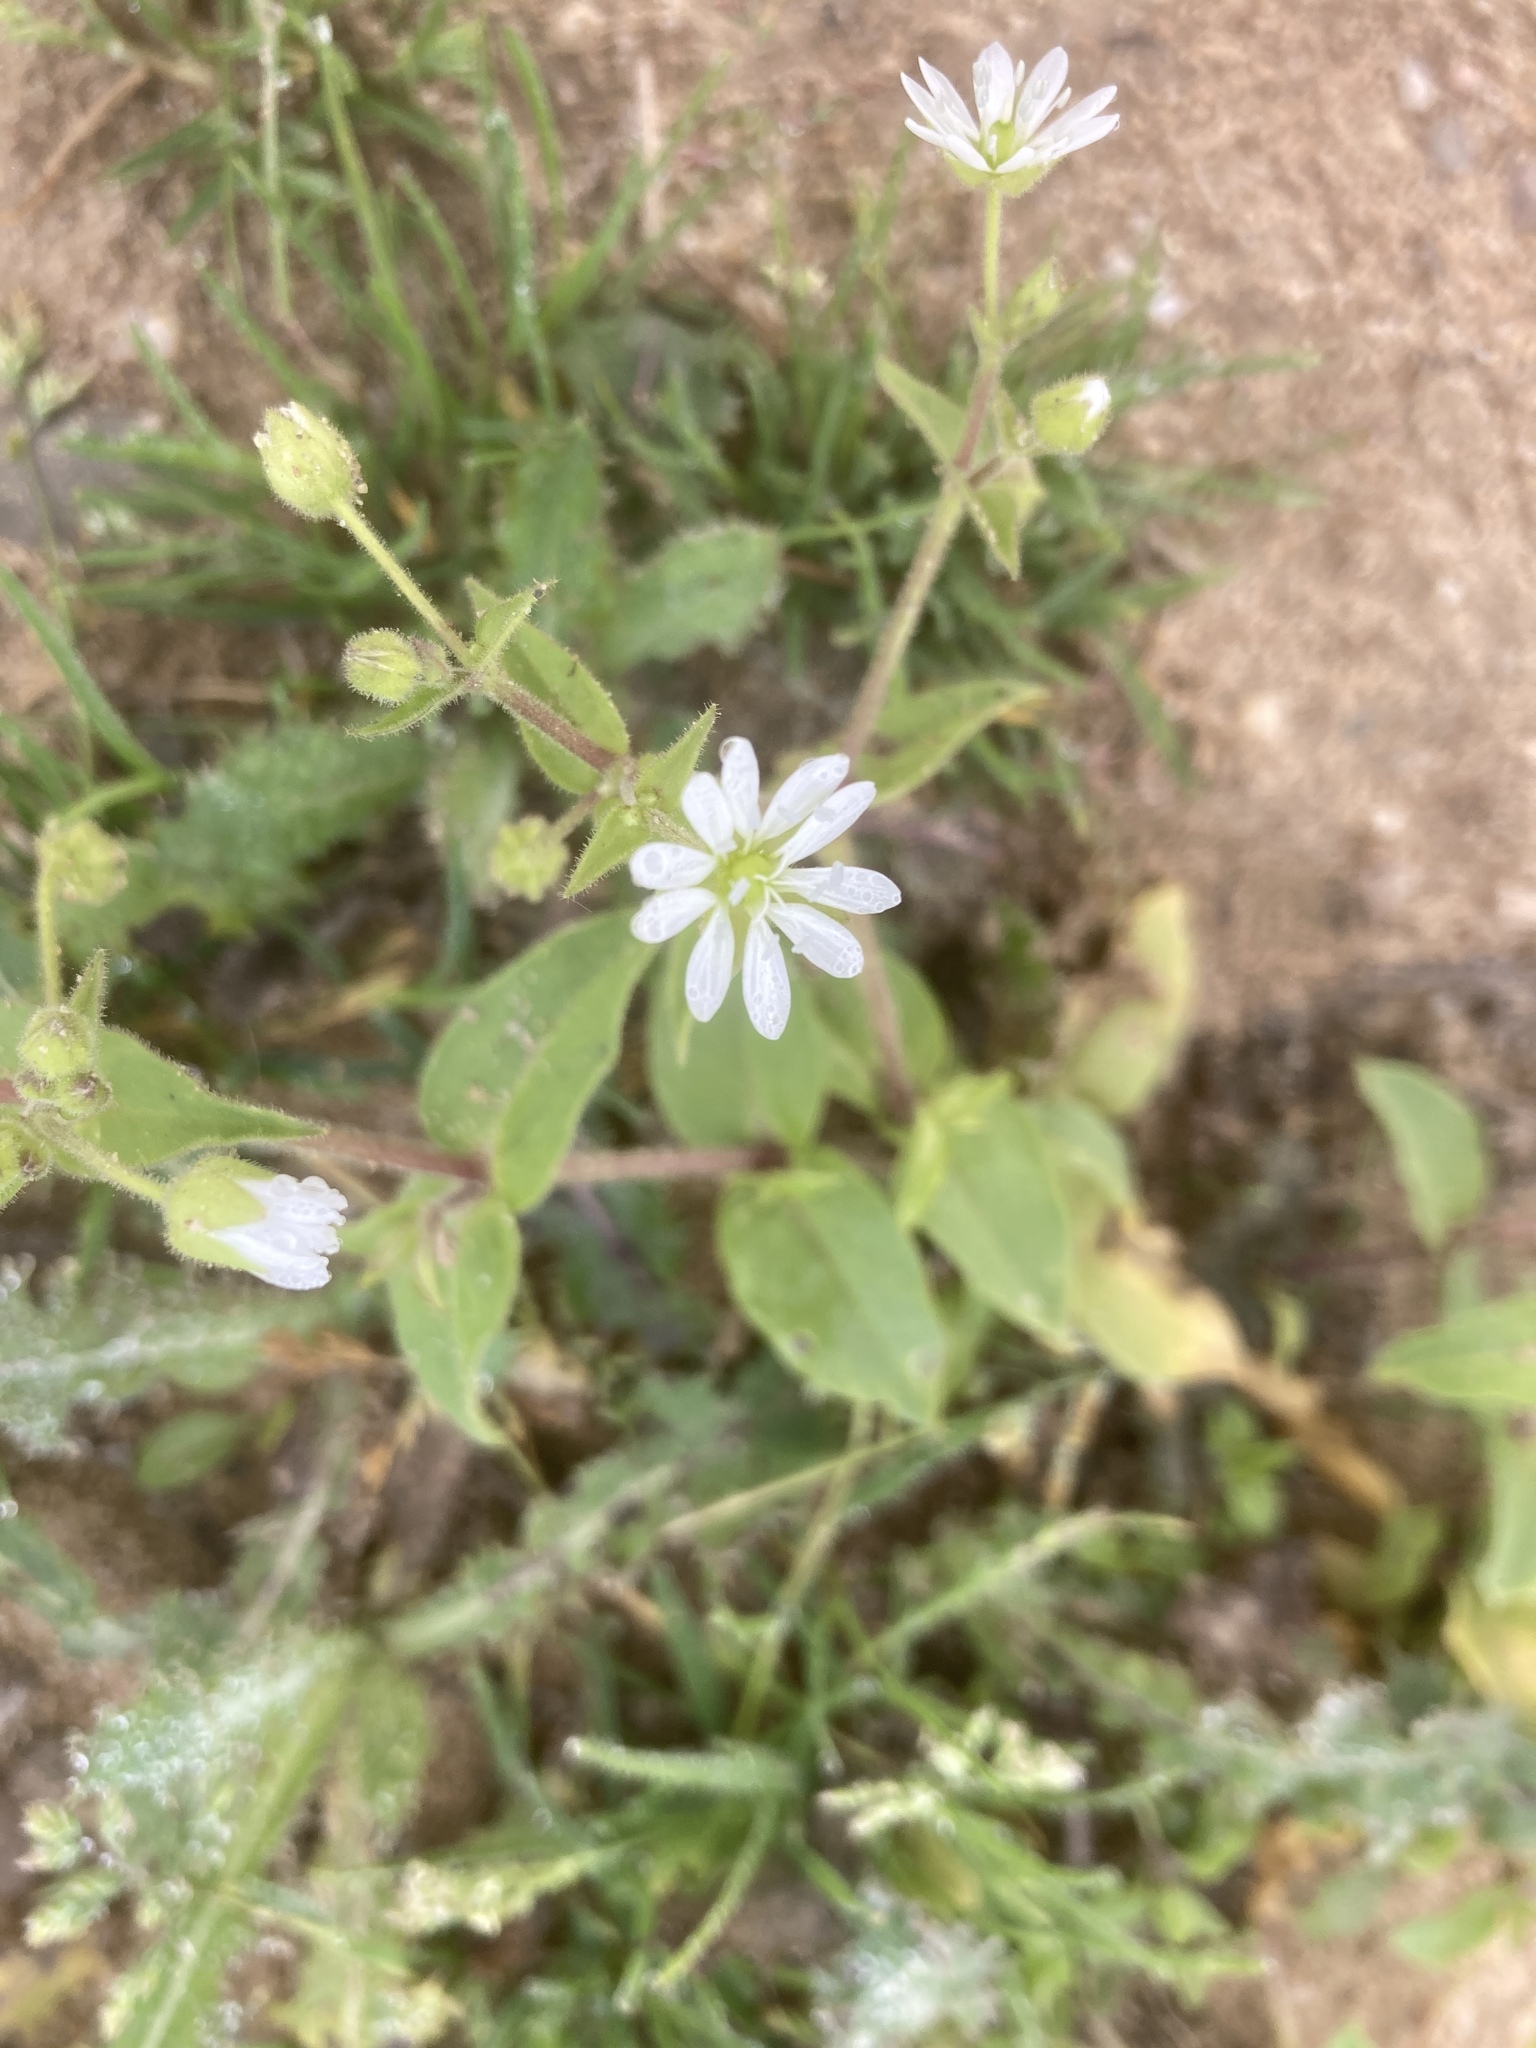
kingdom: Plantae
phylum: Tracheophyta
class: Magnoliopsida
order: Caryophyllales
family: Caryophyllaceae
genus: Stellaria
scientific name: Stellaria aquatica
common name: Water chickweed
